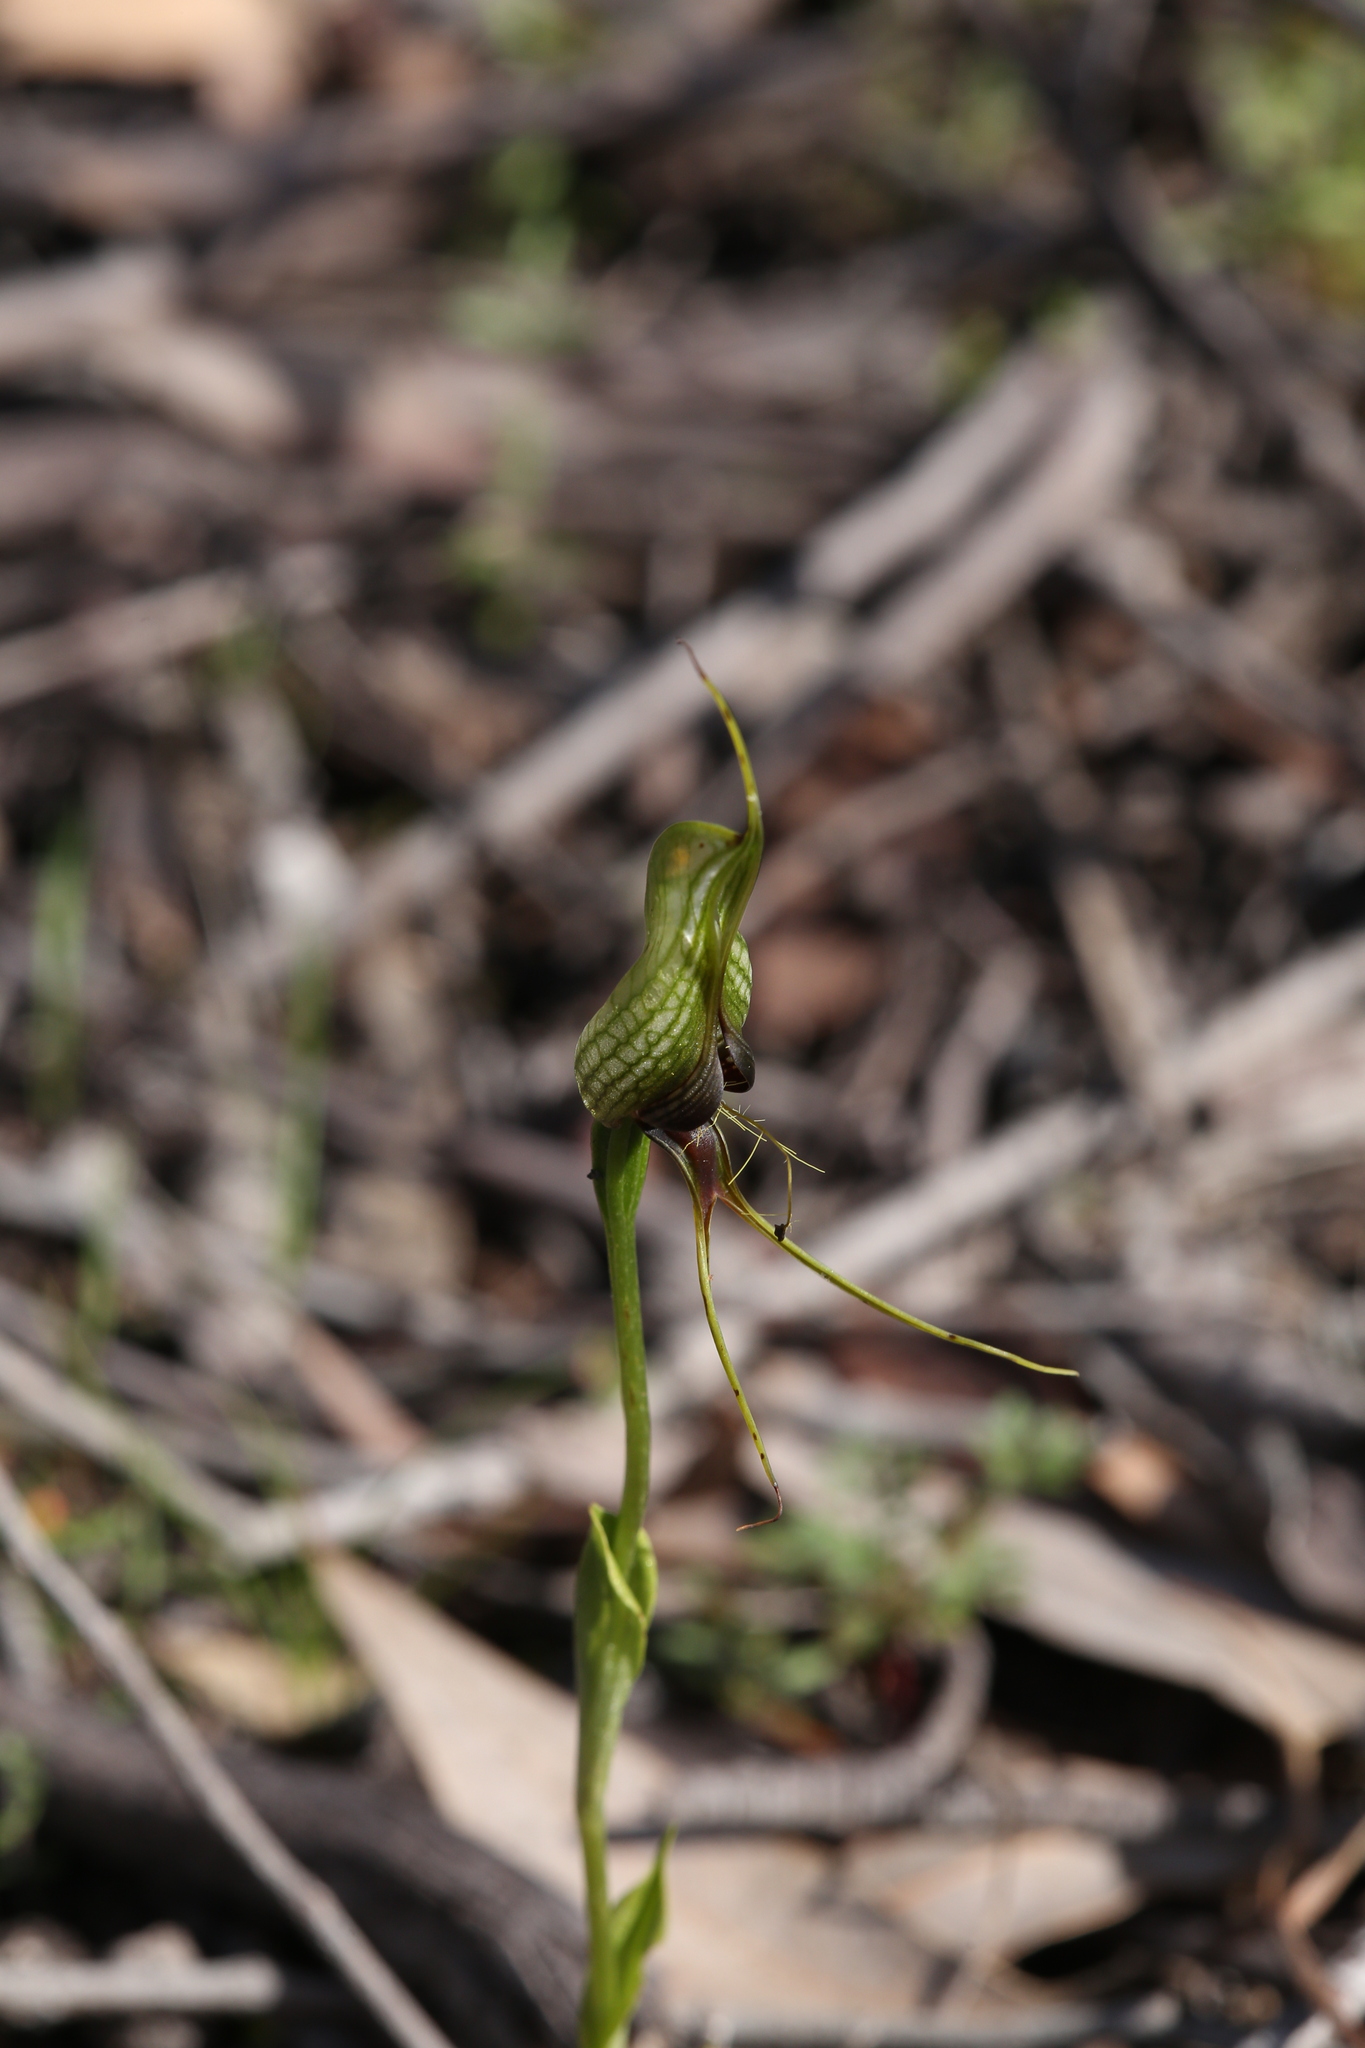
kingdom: Plantae
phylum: Tracheophyta
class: Liliopsida
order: Asparagales
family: Orchidaceae
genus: Pterostylis
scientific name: Pterostylis barbata
